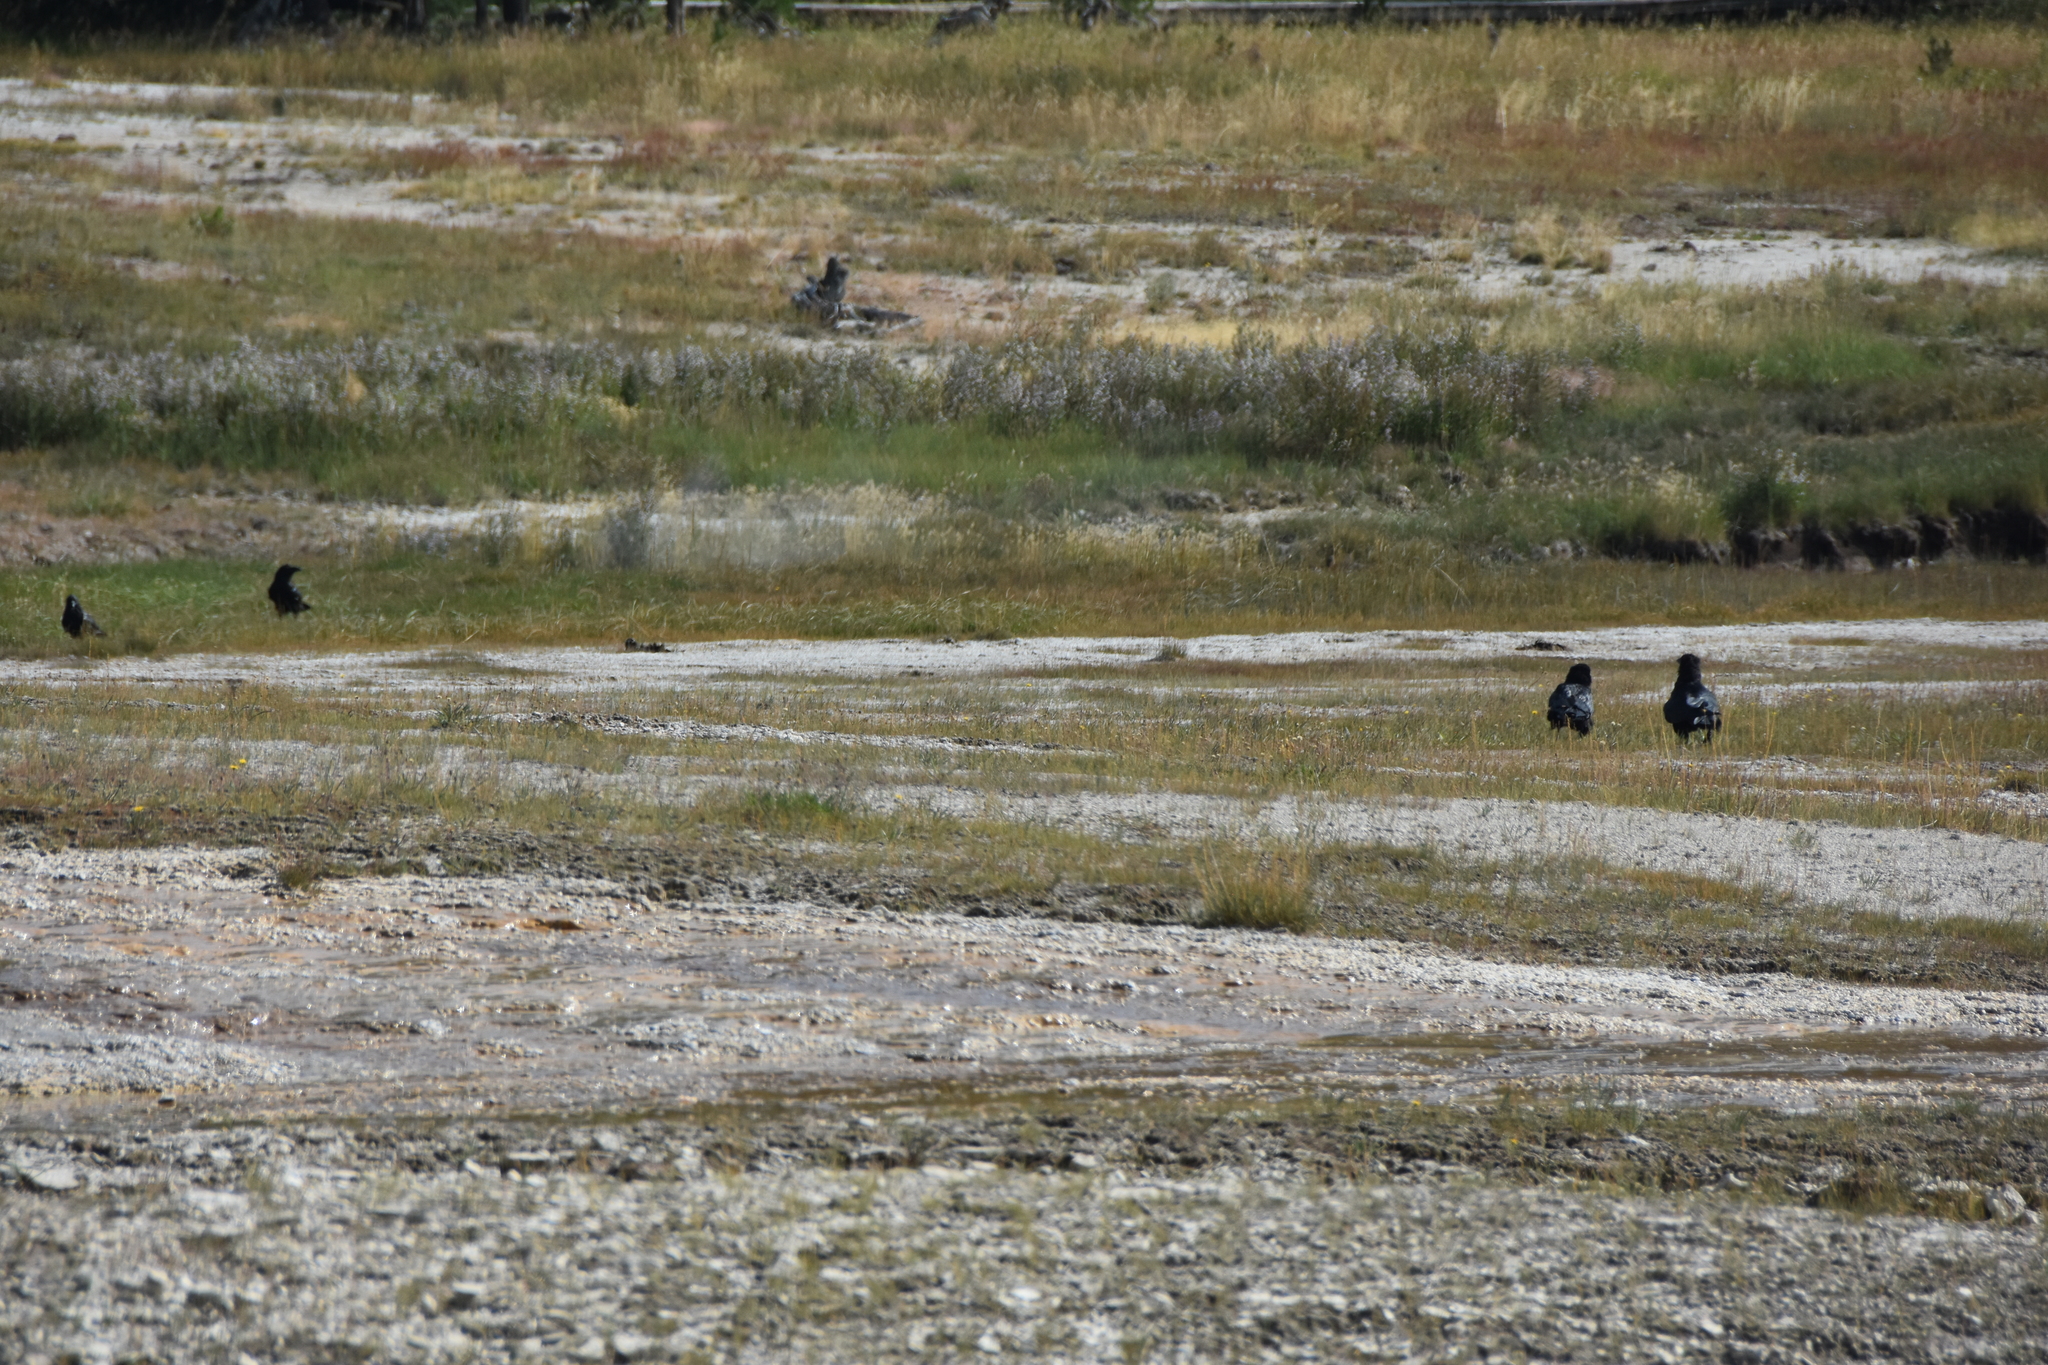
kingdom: Animalia
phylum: Chordata
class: Aves
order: Passeriformes
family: Corvidae
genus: Corvus
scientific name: Corvus corax
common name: Common raven
